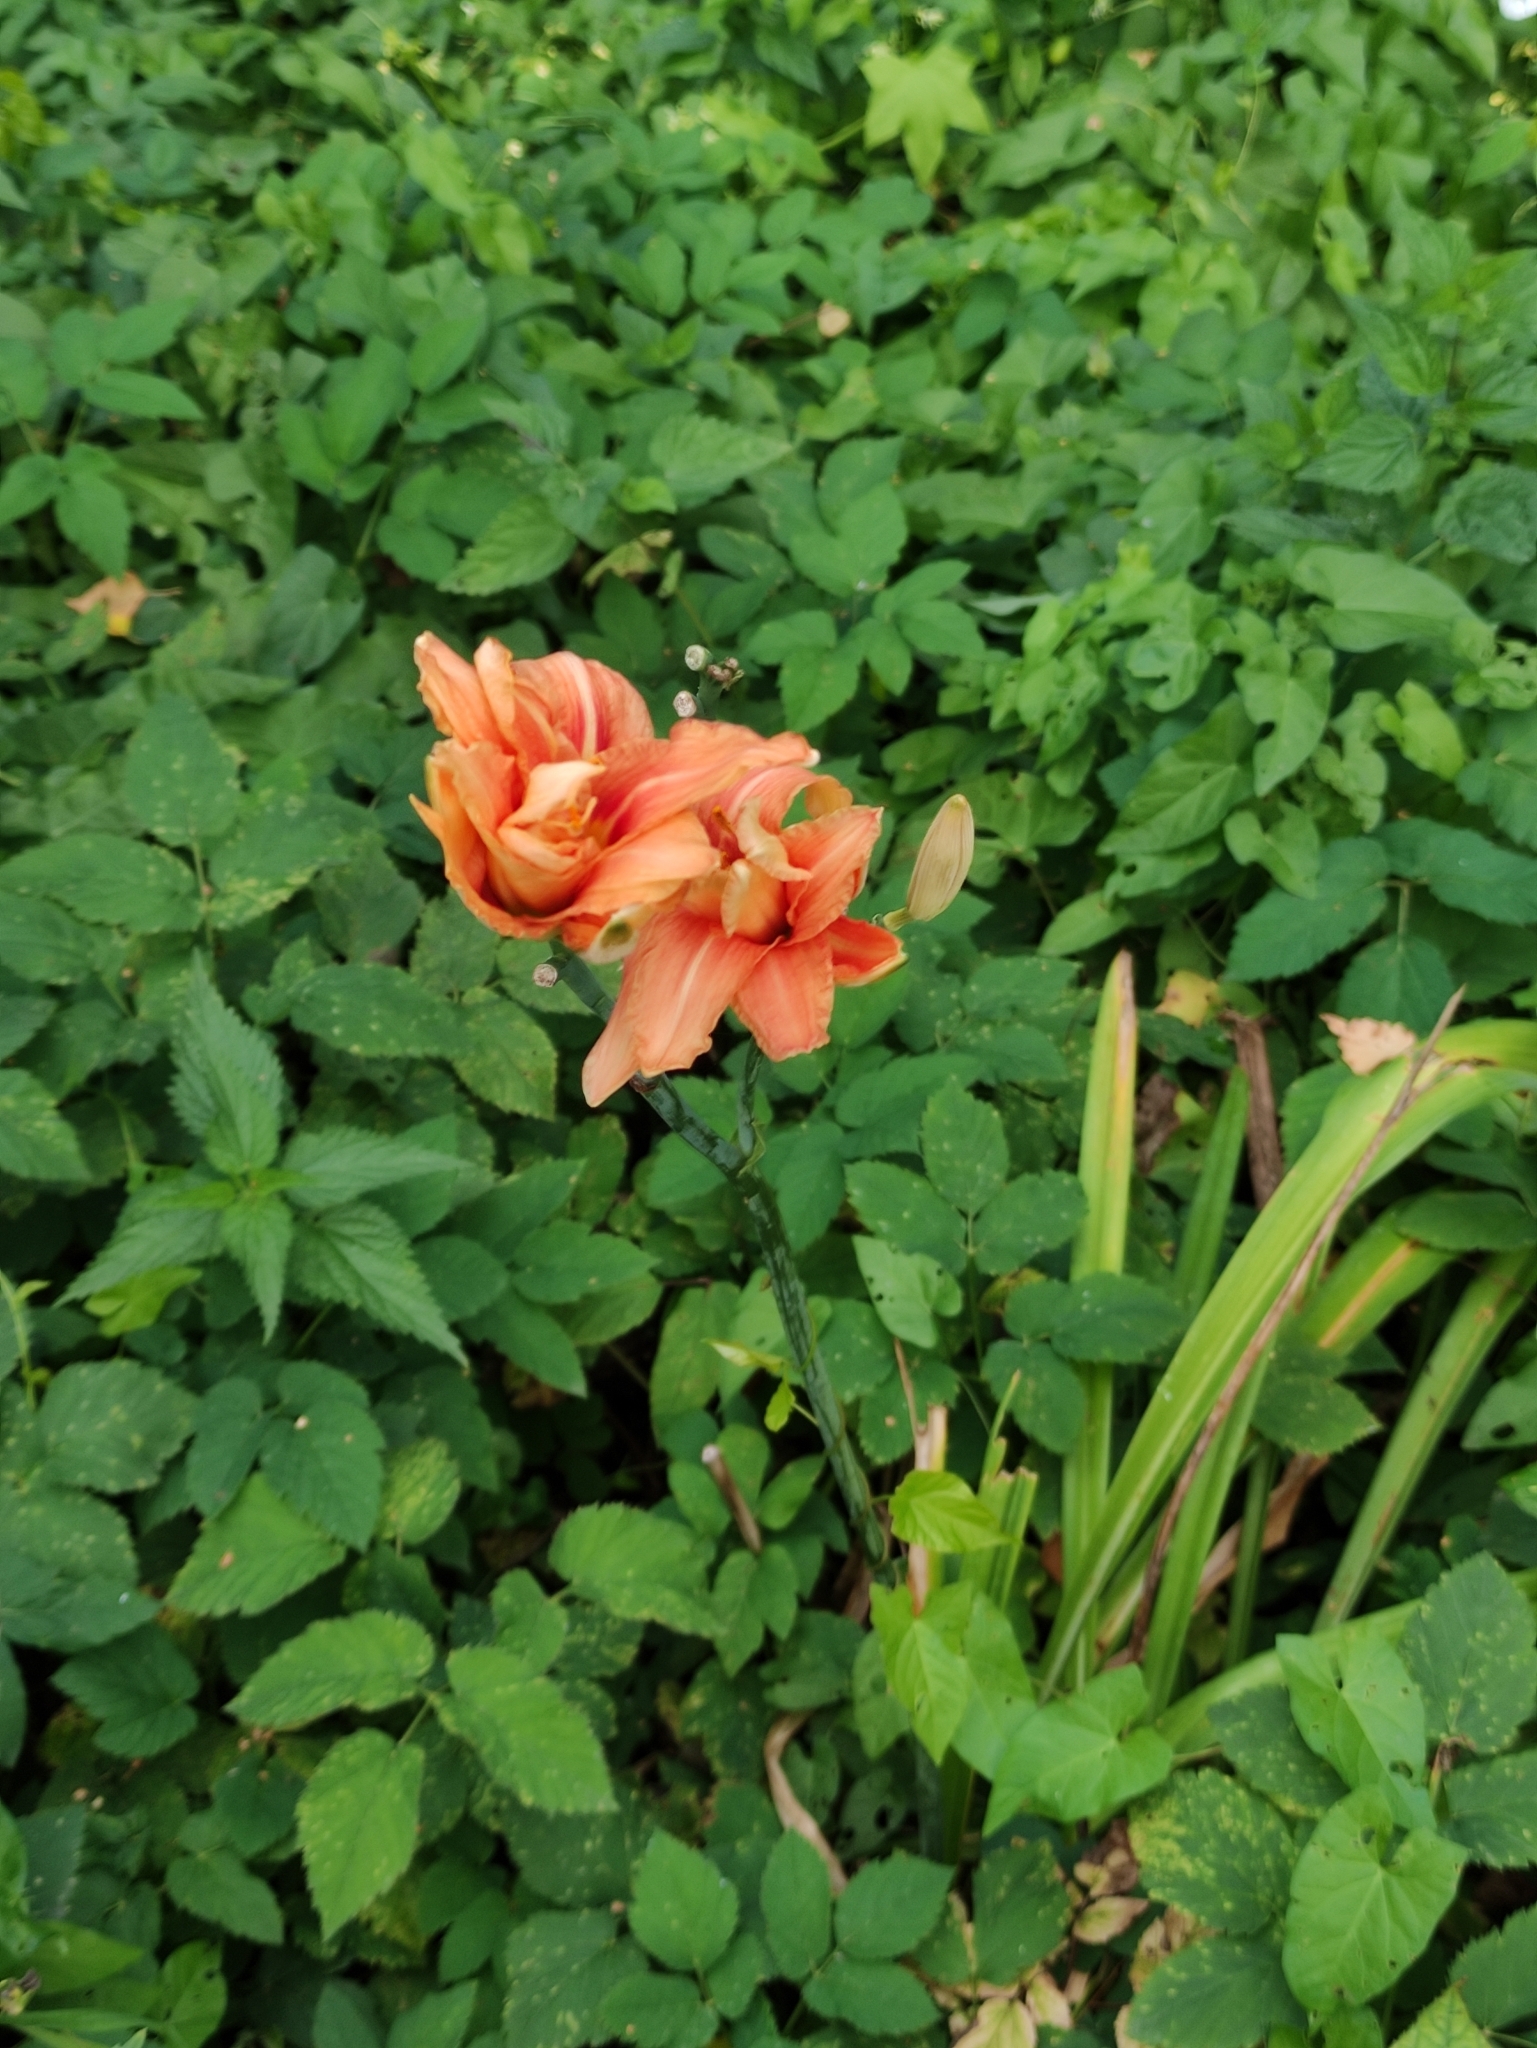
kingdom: Plantae
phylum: Tracheophyta
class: Liliopsida
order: Asparagales
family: Asphodelaceae
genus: Hemerocallis
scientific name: Hemerocallis fulva
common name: Orange day-lily
